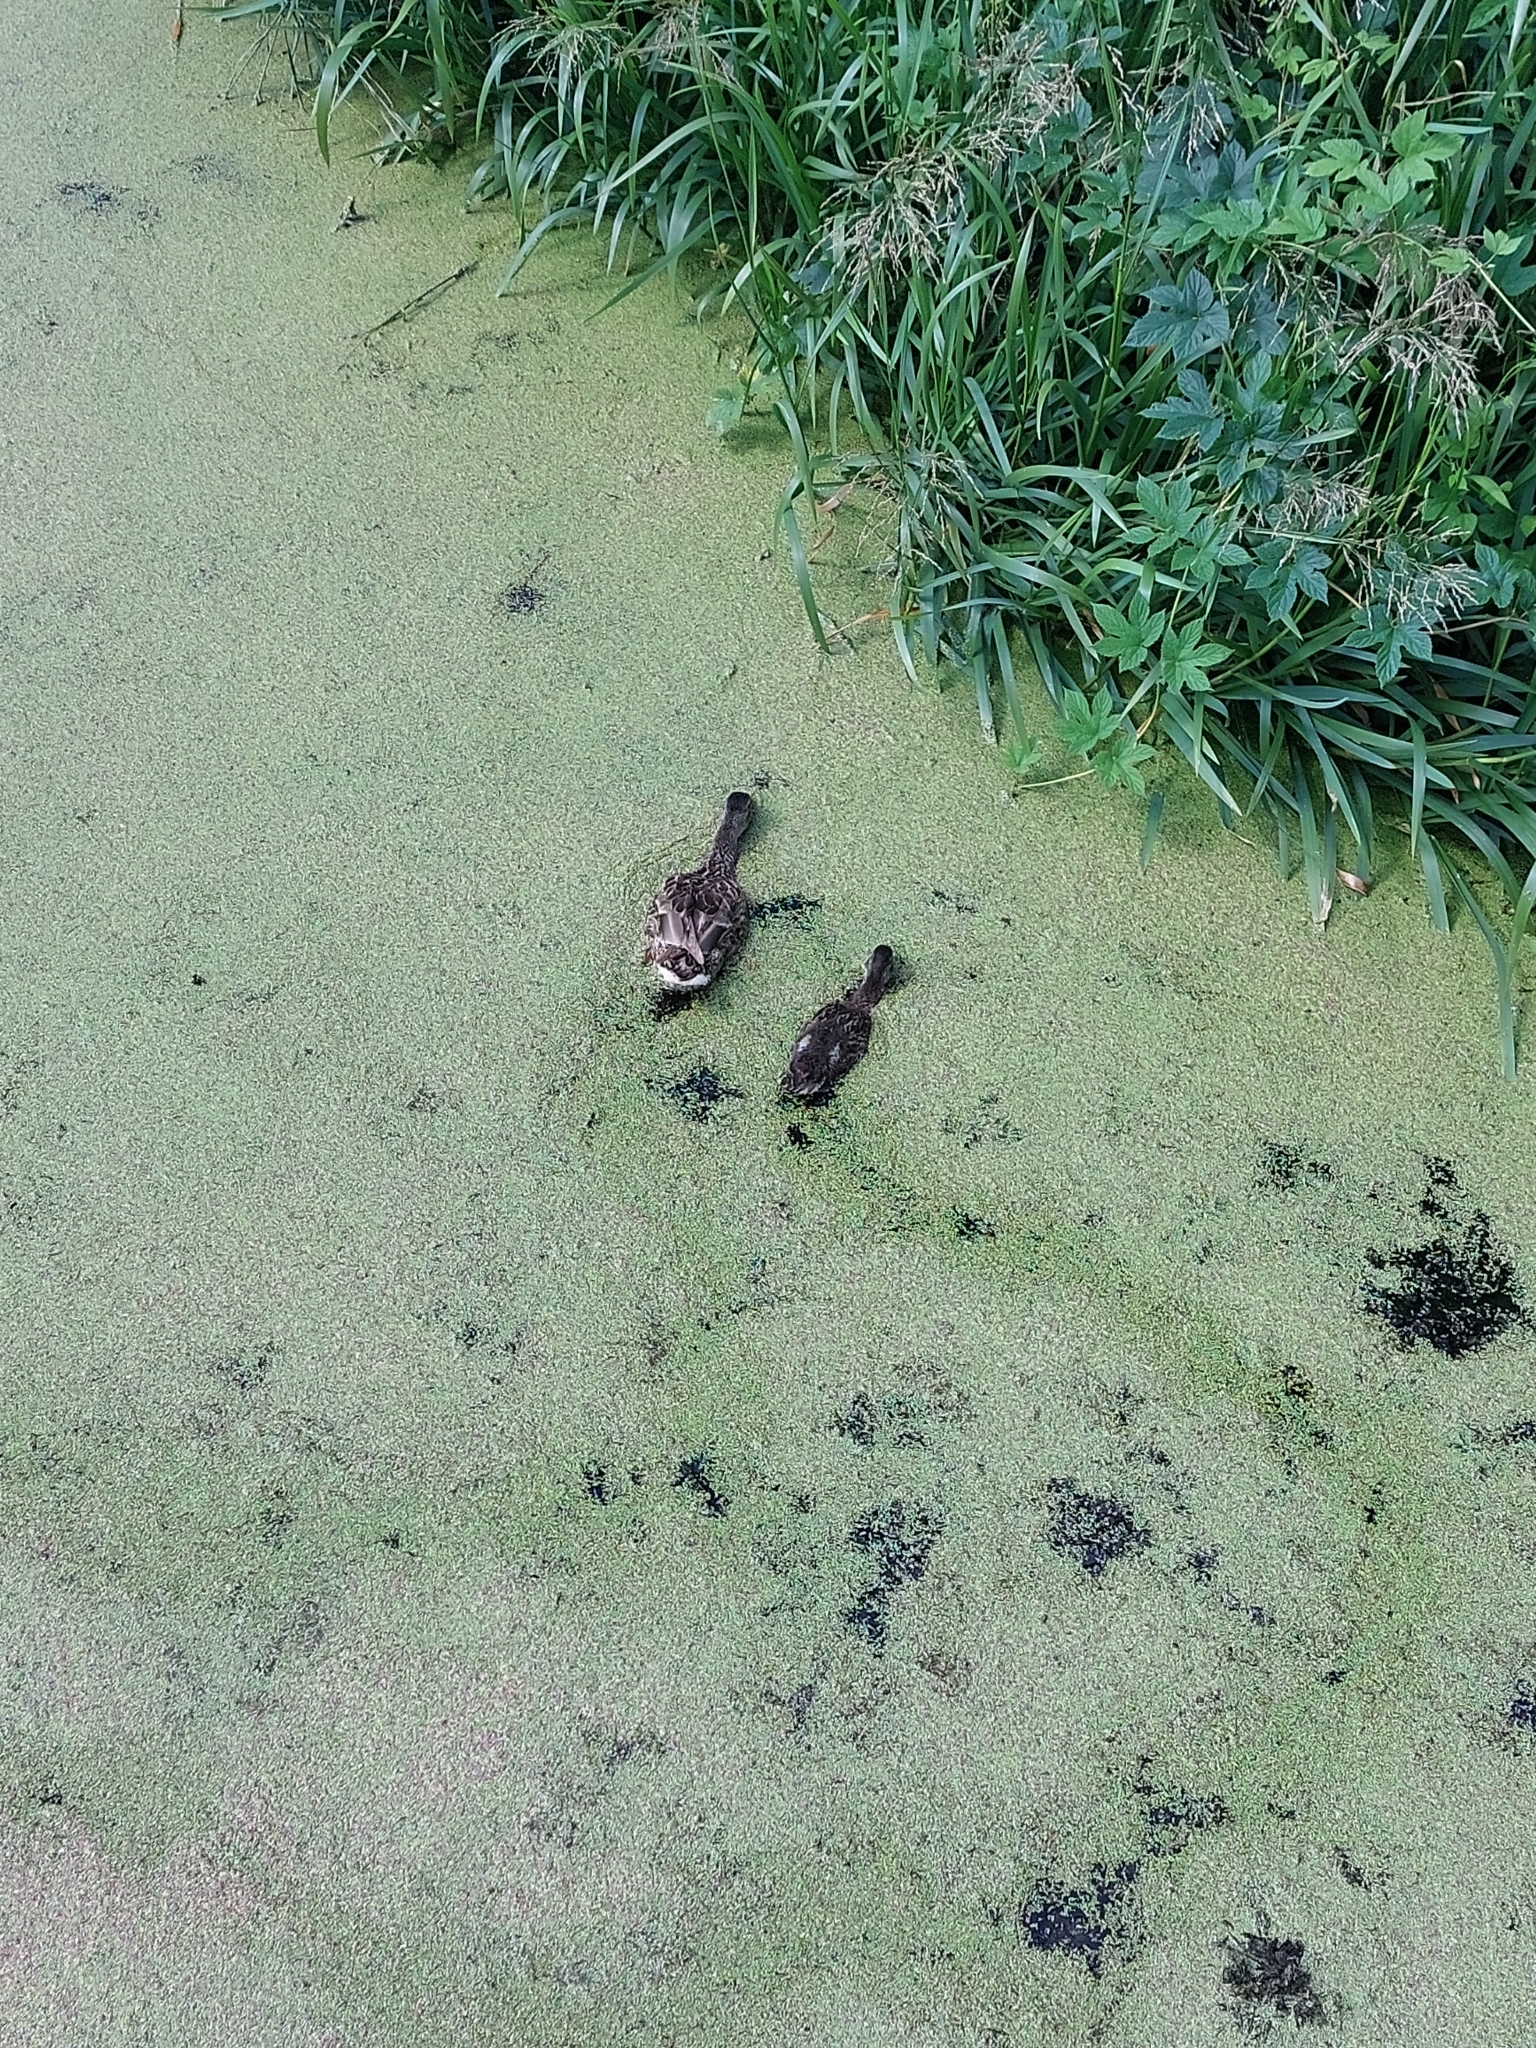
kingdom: Animalia
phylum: Chordata
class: Aves
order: Anseriformes
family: Anatidae
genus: Anas
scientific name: Anas platyrhynchos
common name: Mallard
